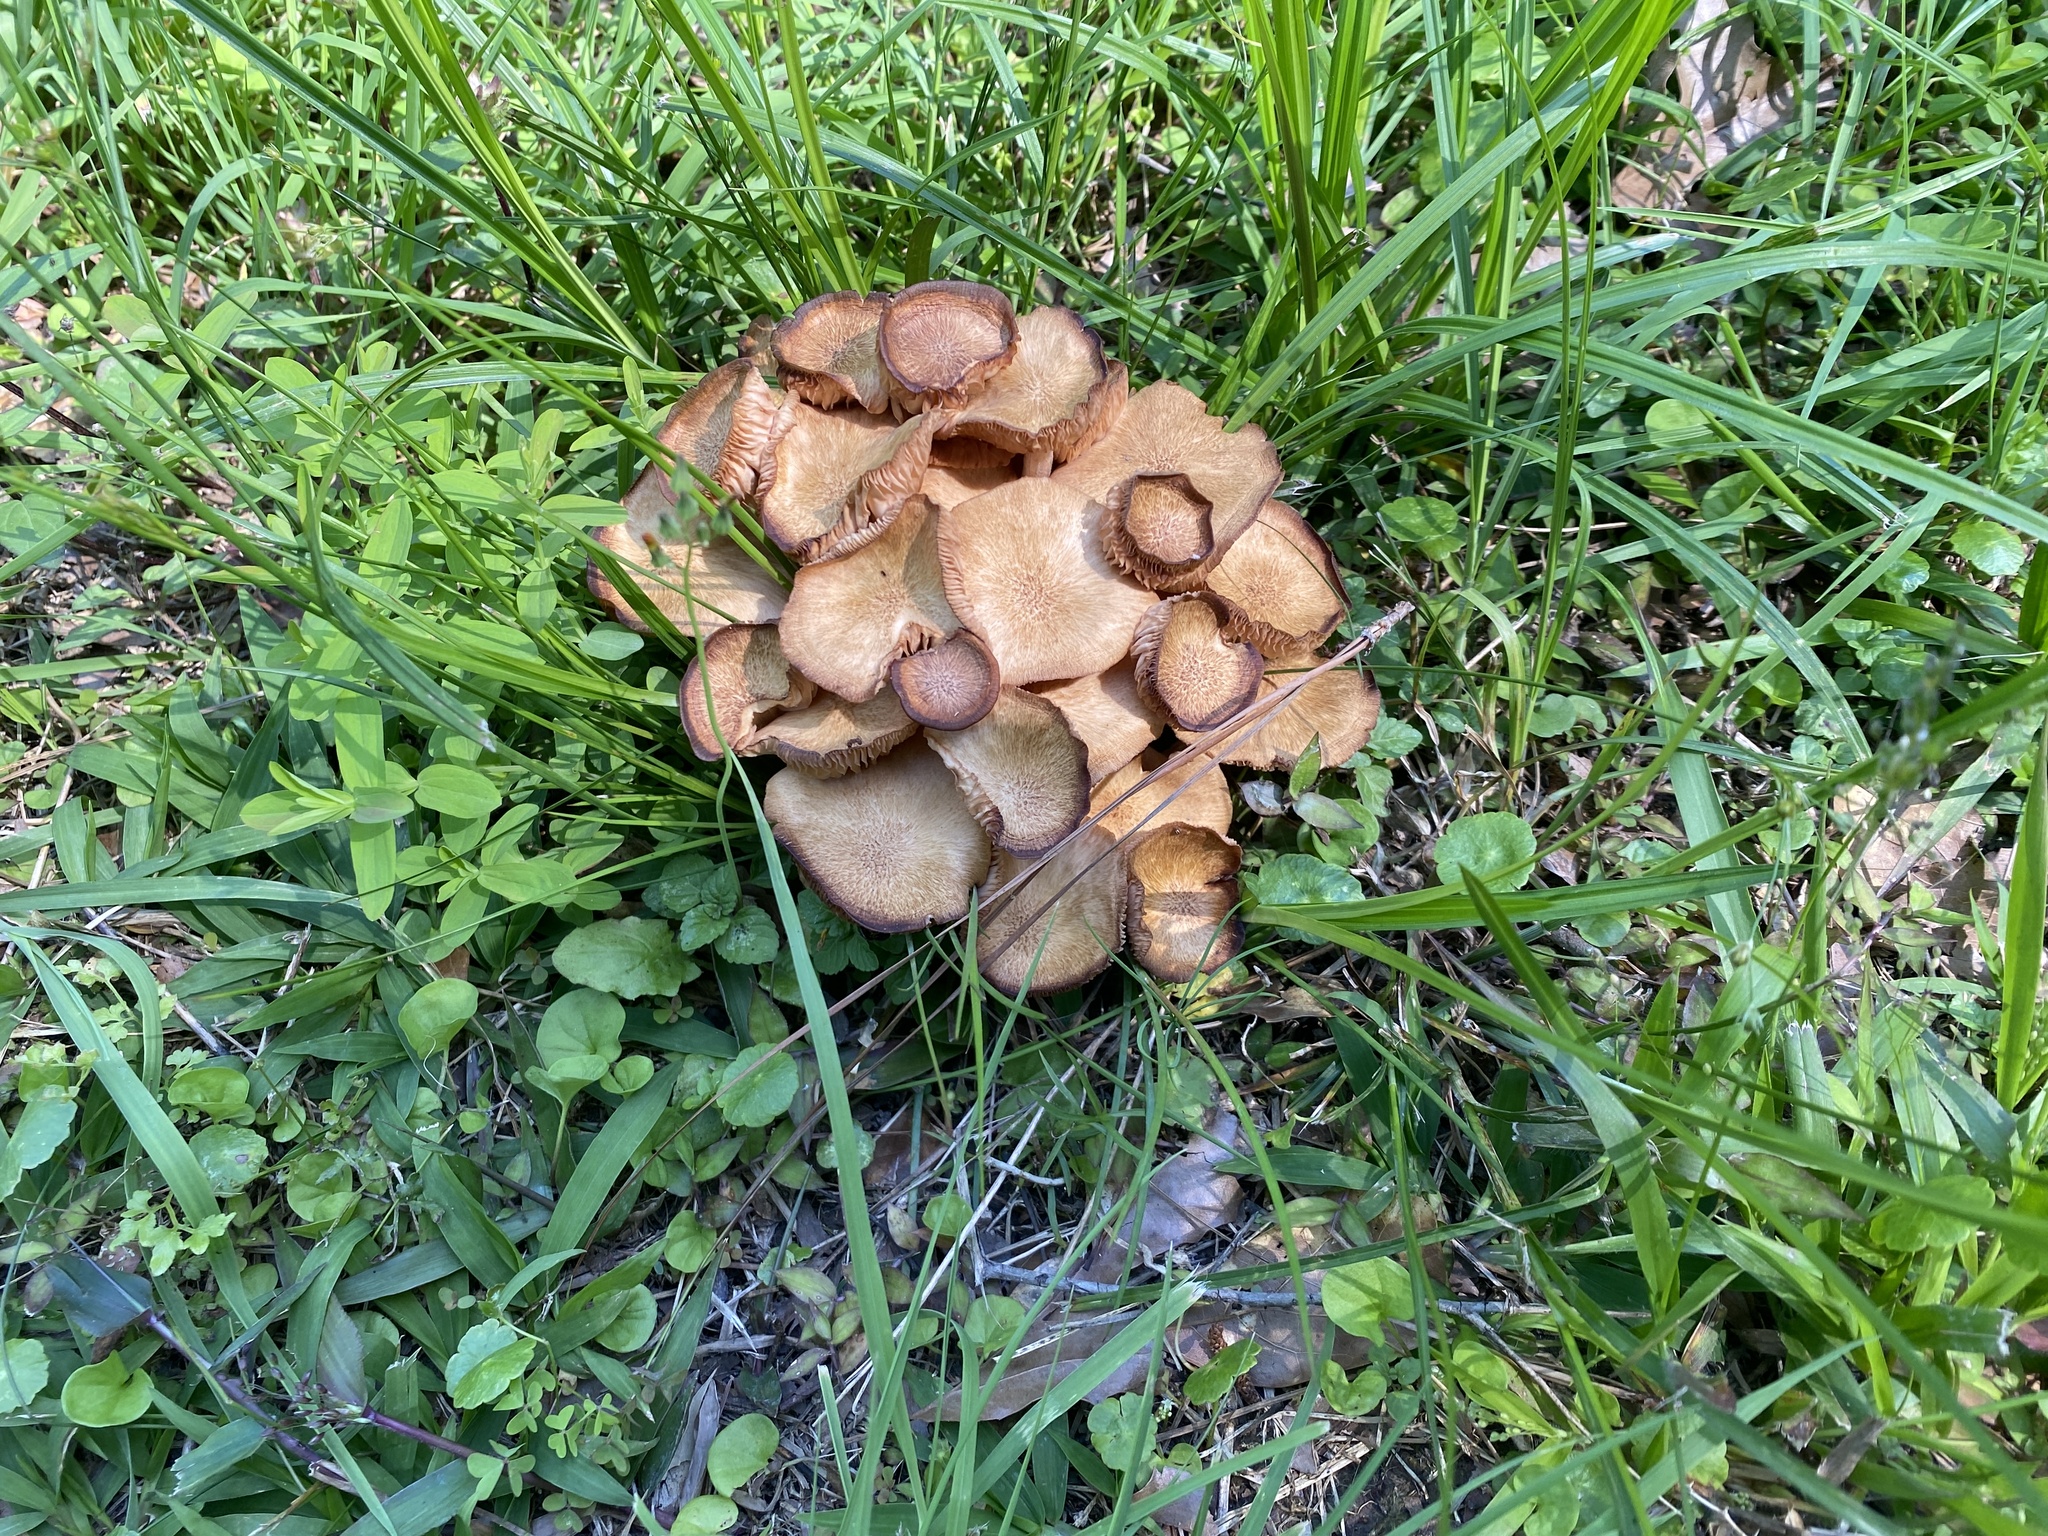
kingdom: Fungi
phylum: Basidiomycota
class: Agaricomycetes
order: Agaricales
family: Physalacriaceae
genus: Desarmillaria
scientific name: Desarmillaria caespitosa
